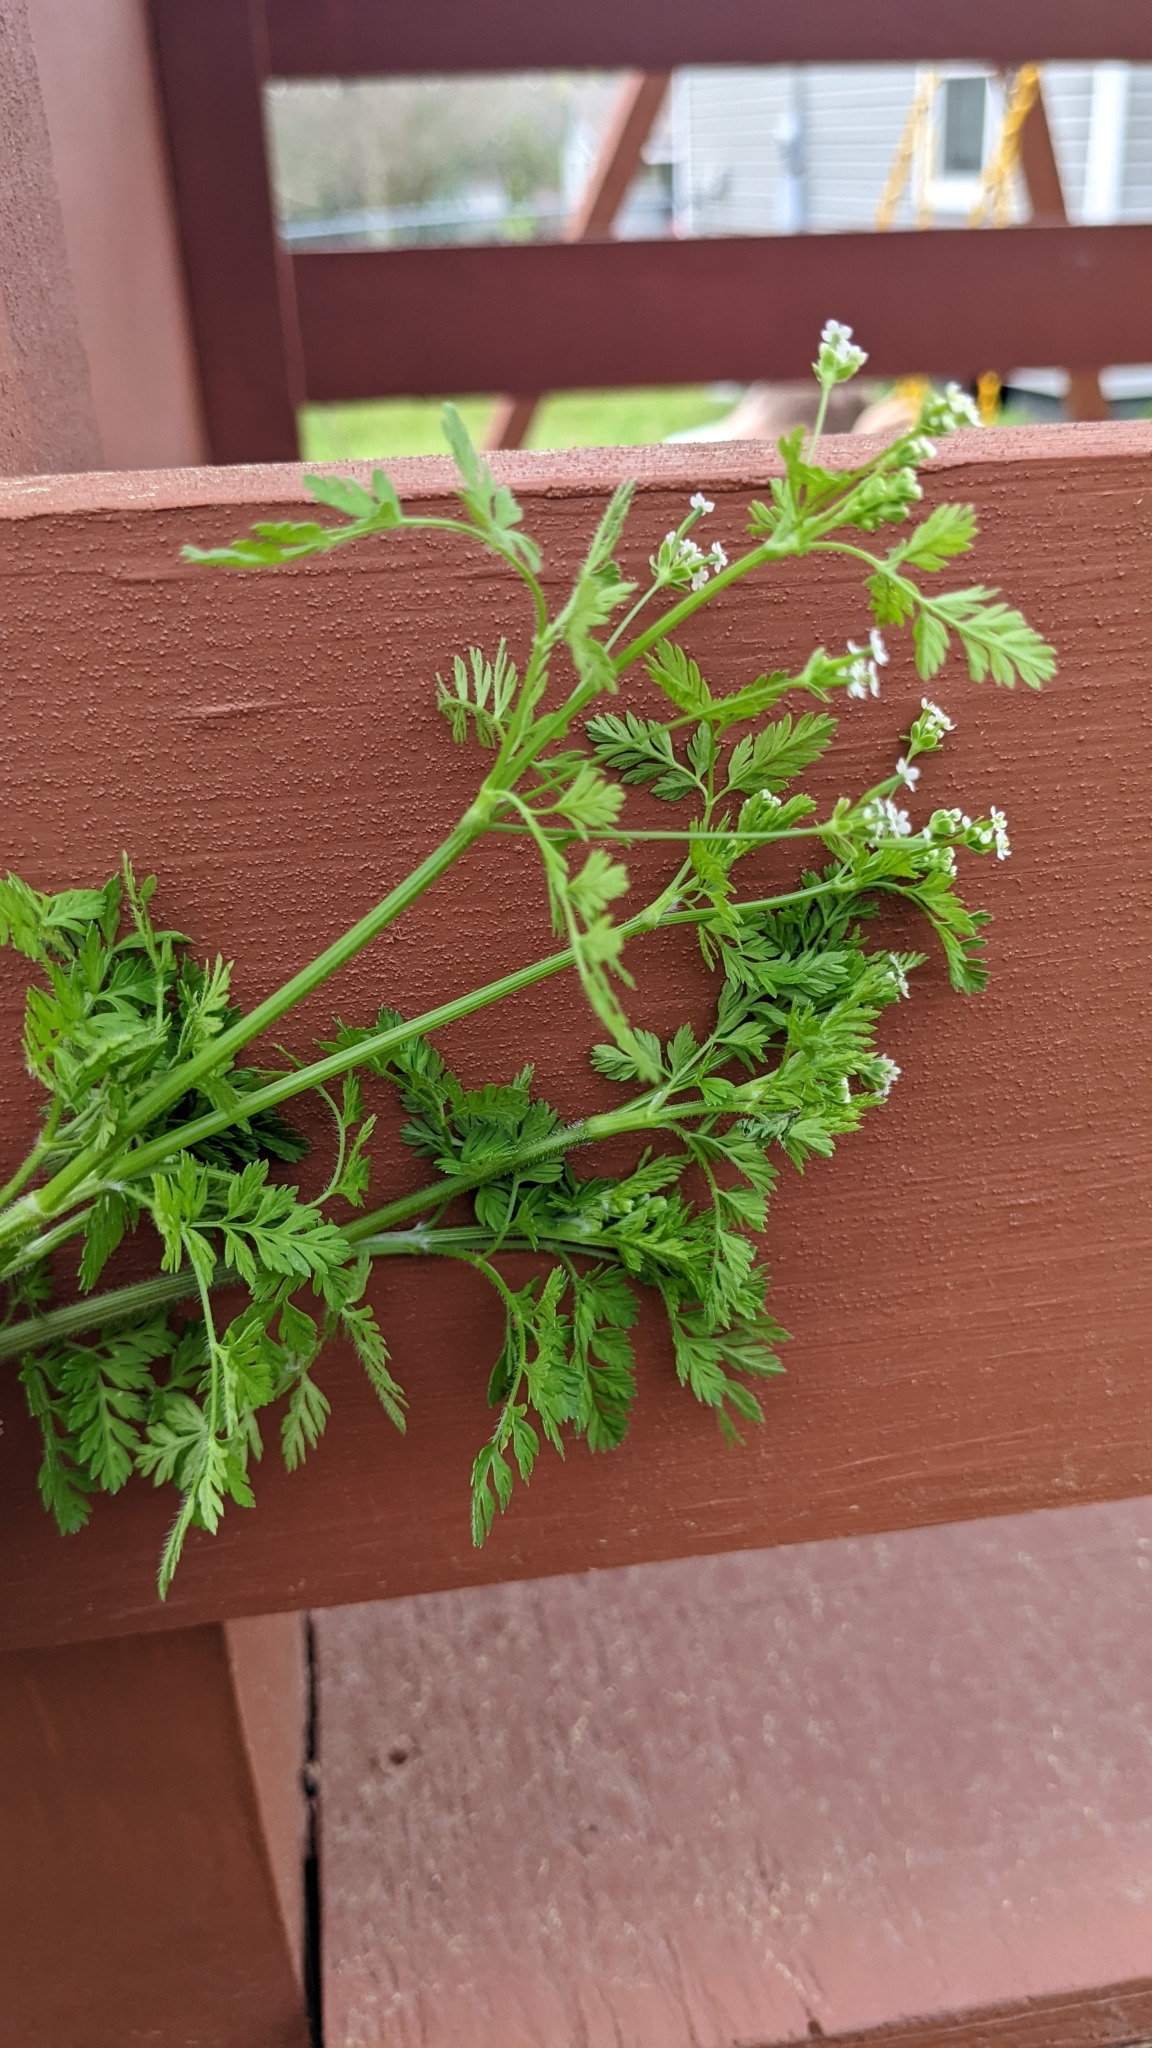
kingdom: Plantae
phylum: Tracheophyta
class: Magnoliopsida
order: Apiales
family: Apiaceae
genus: Chaerophyllum
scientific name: Chaerophyllum tainturieri
